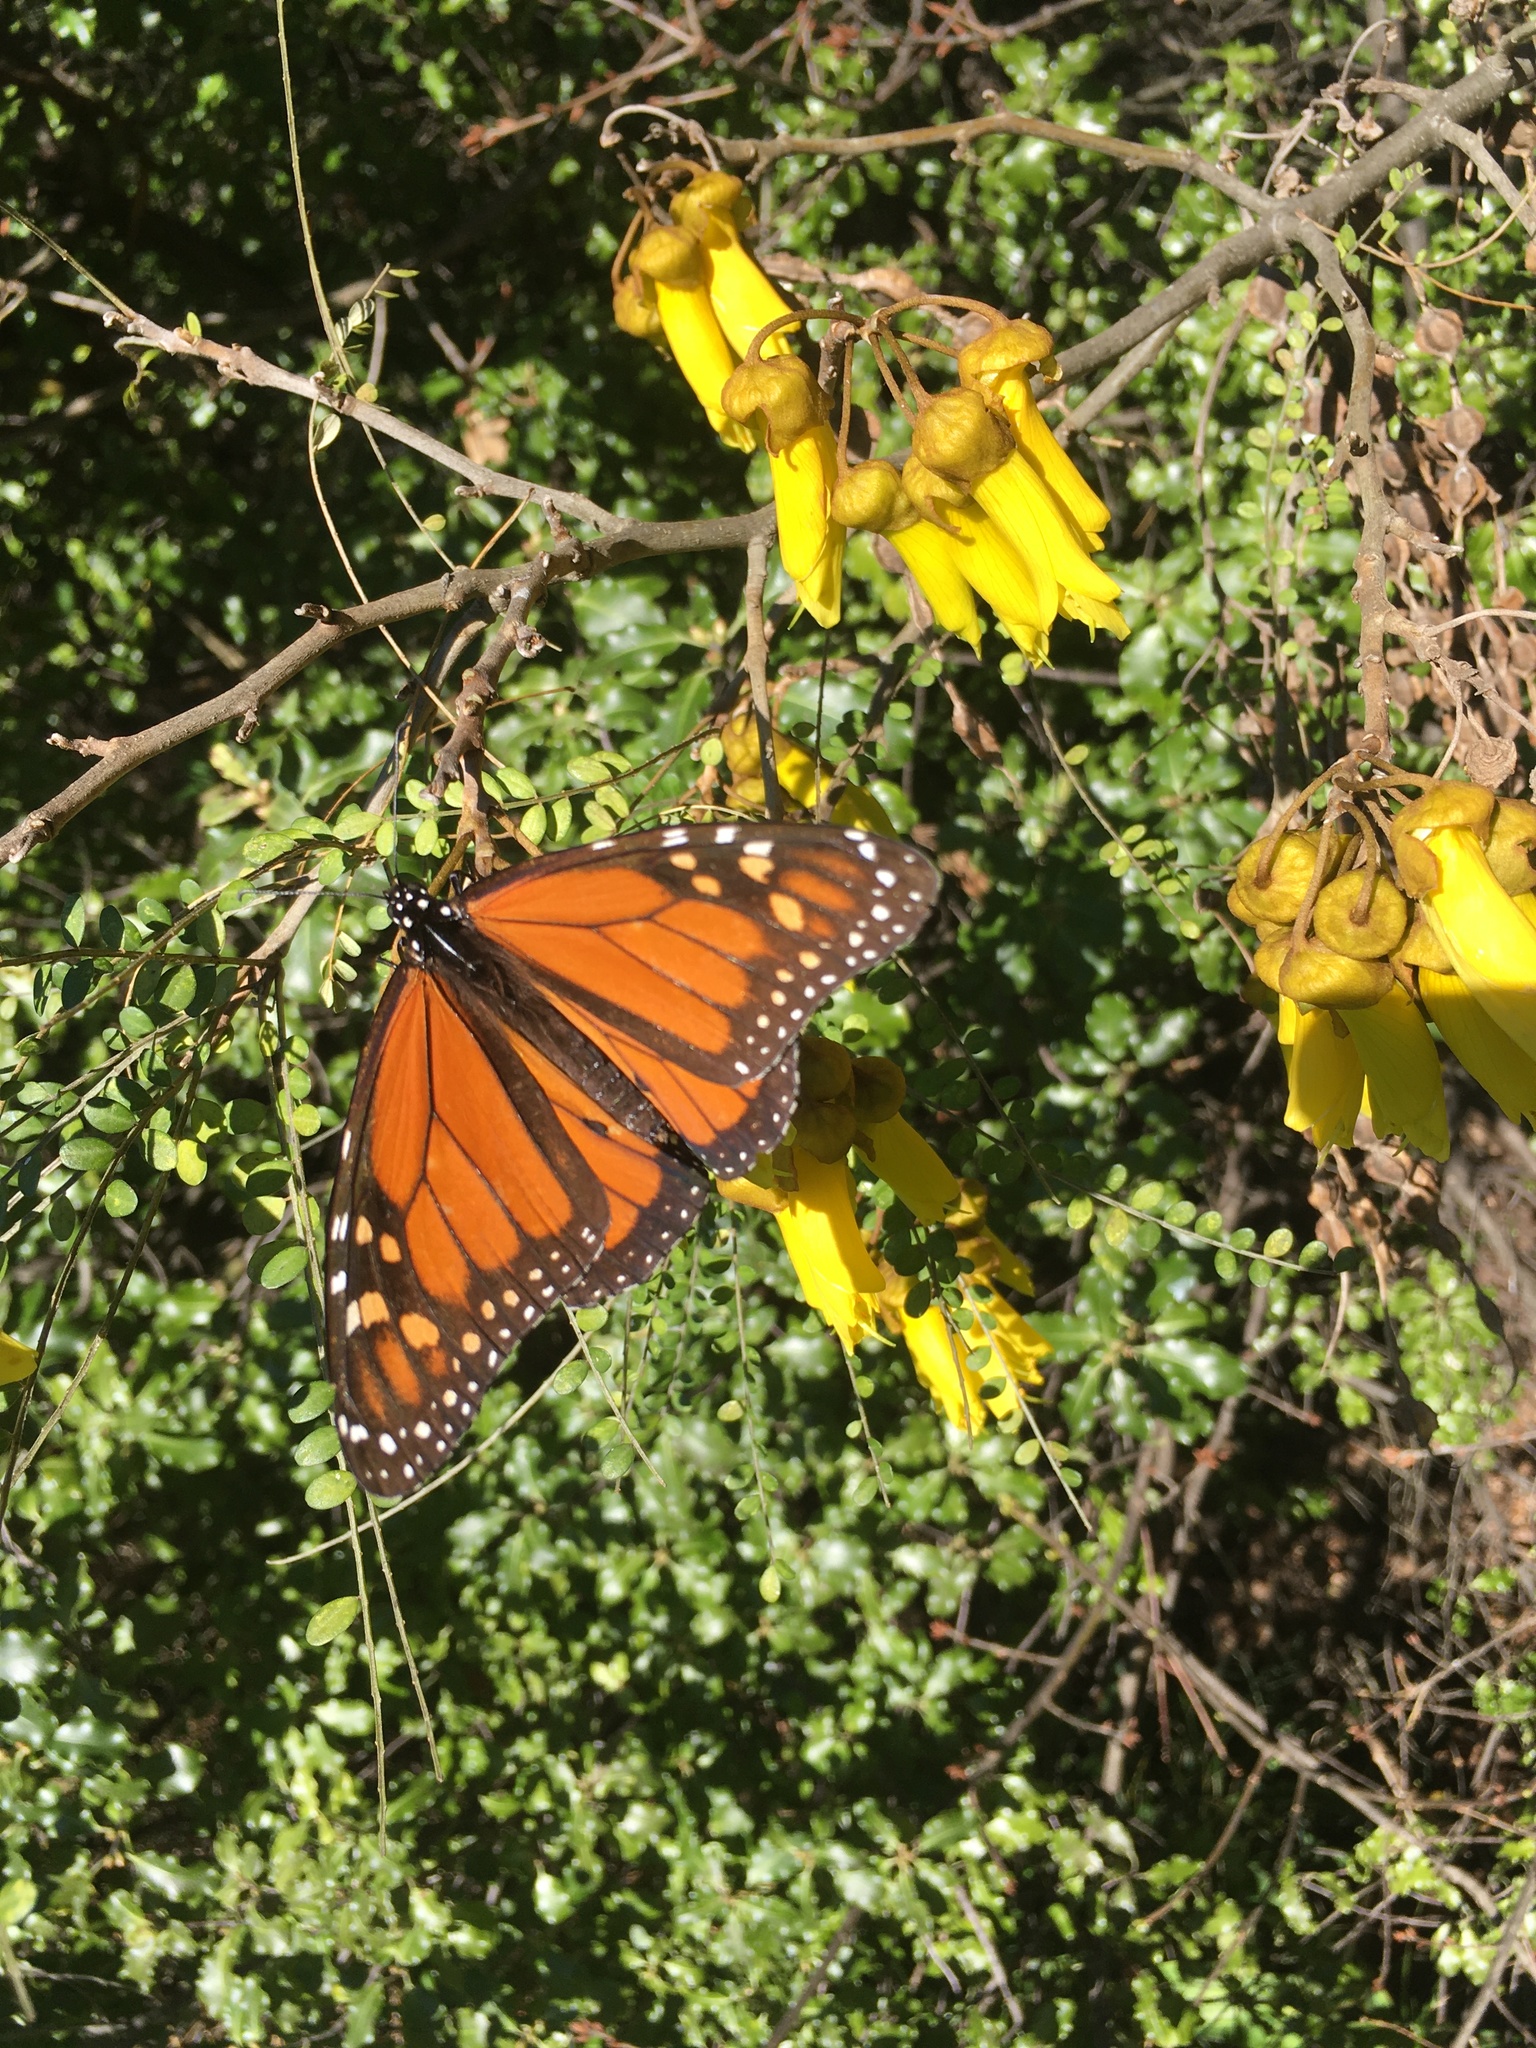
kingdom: Animalia
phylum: Arthropoda
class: Insecta
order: Lepidoptera
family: Nymphalidae
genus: Danaus
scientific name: Danaus plexippus
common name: Monarch
